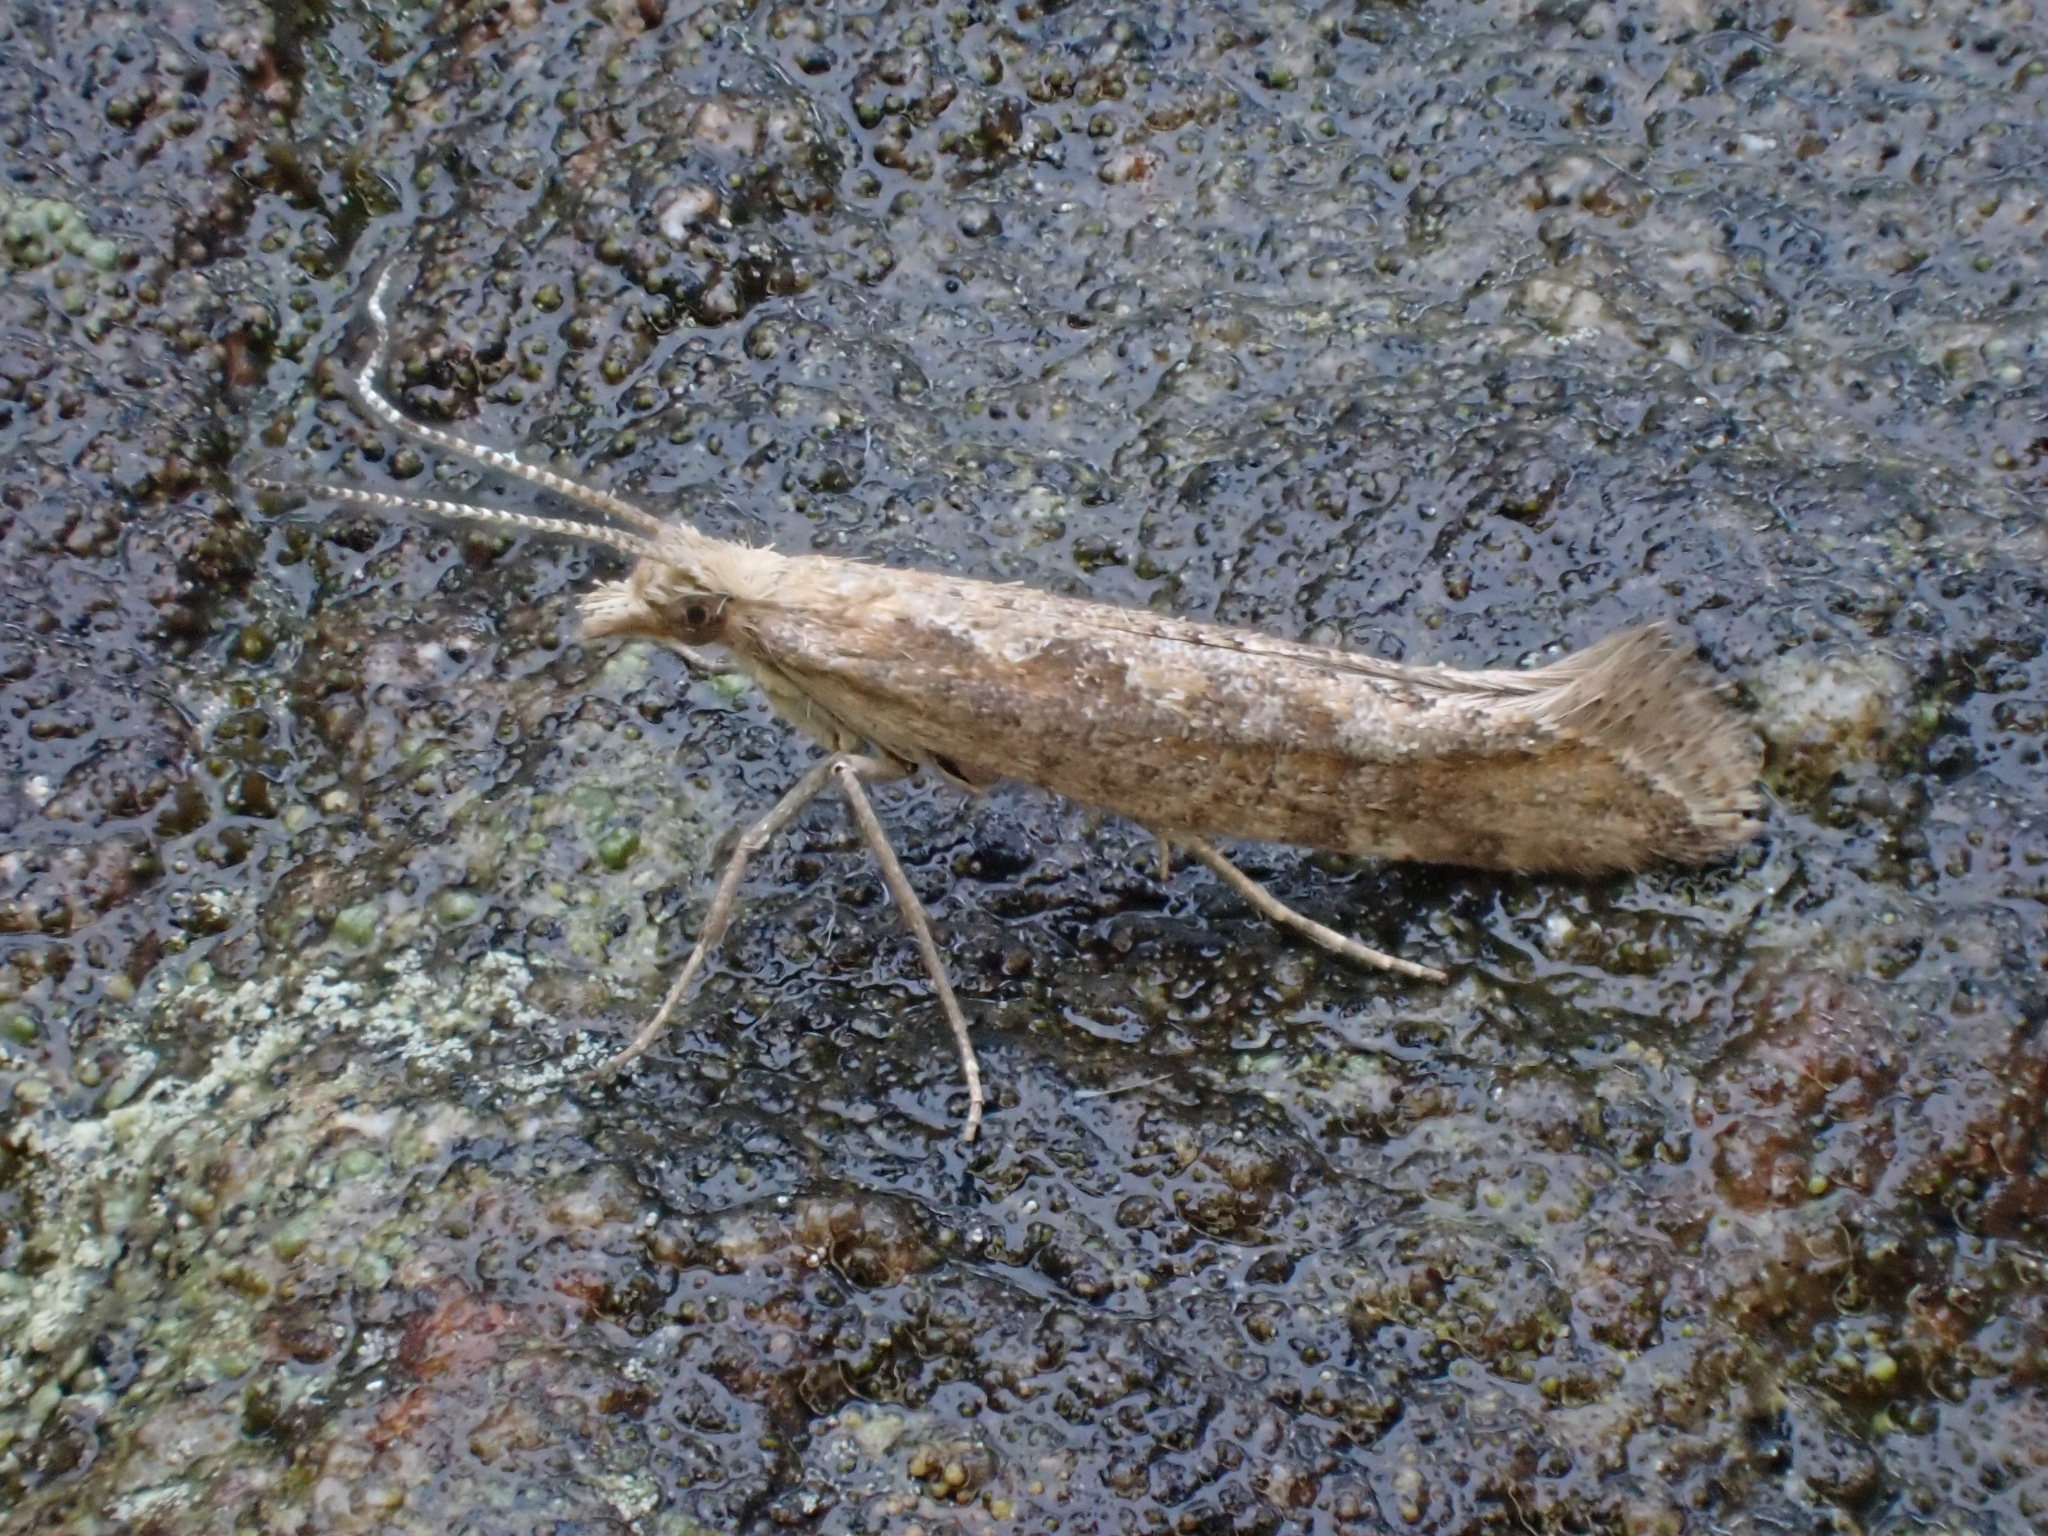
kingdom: Animalia
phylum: Arthropoda
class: Insecta
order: Lepidoptera
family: Plutellidae
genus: Plutella
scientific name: Plutella xylostella
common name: Diamond-back moth
